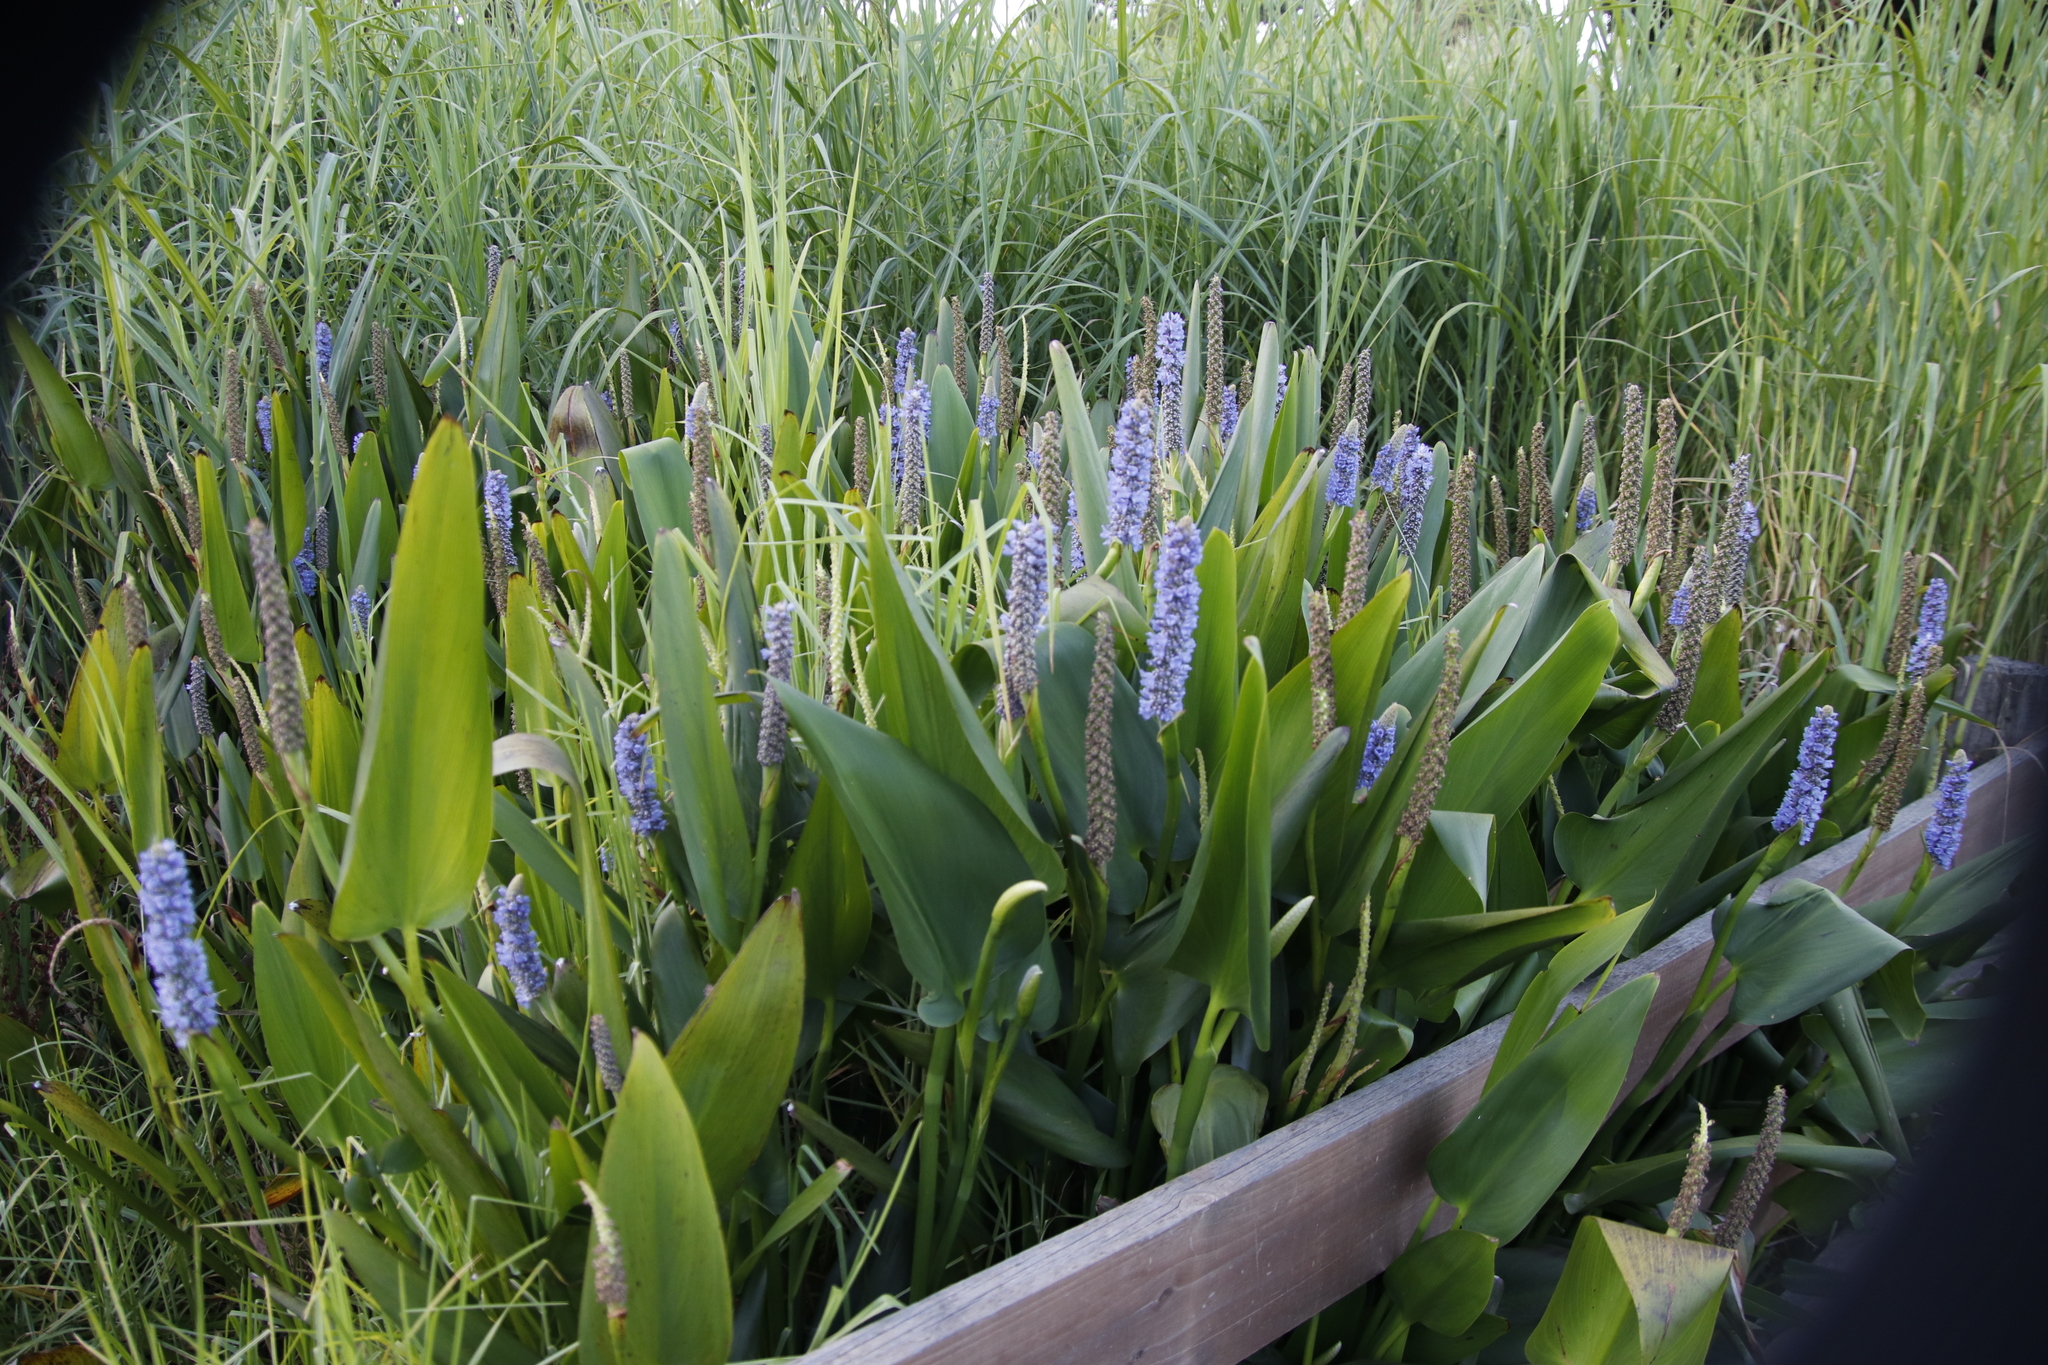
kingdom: Plantae
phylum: Tracheophyta
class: Liliopsida
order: Commelinales
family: Pontederiaceae
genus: Pontederia
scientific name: Pontederia cordata
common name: Pickerelweed
